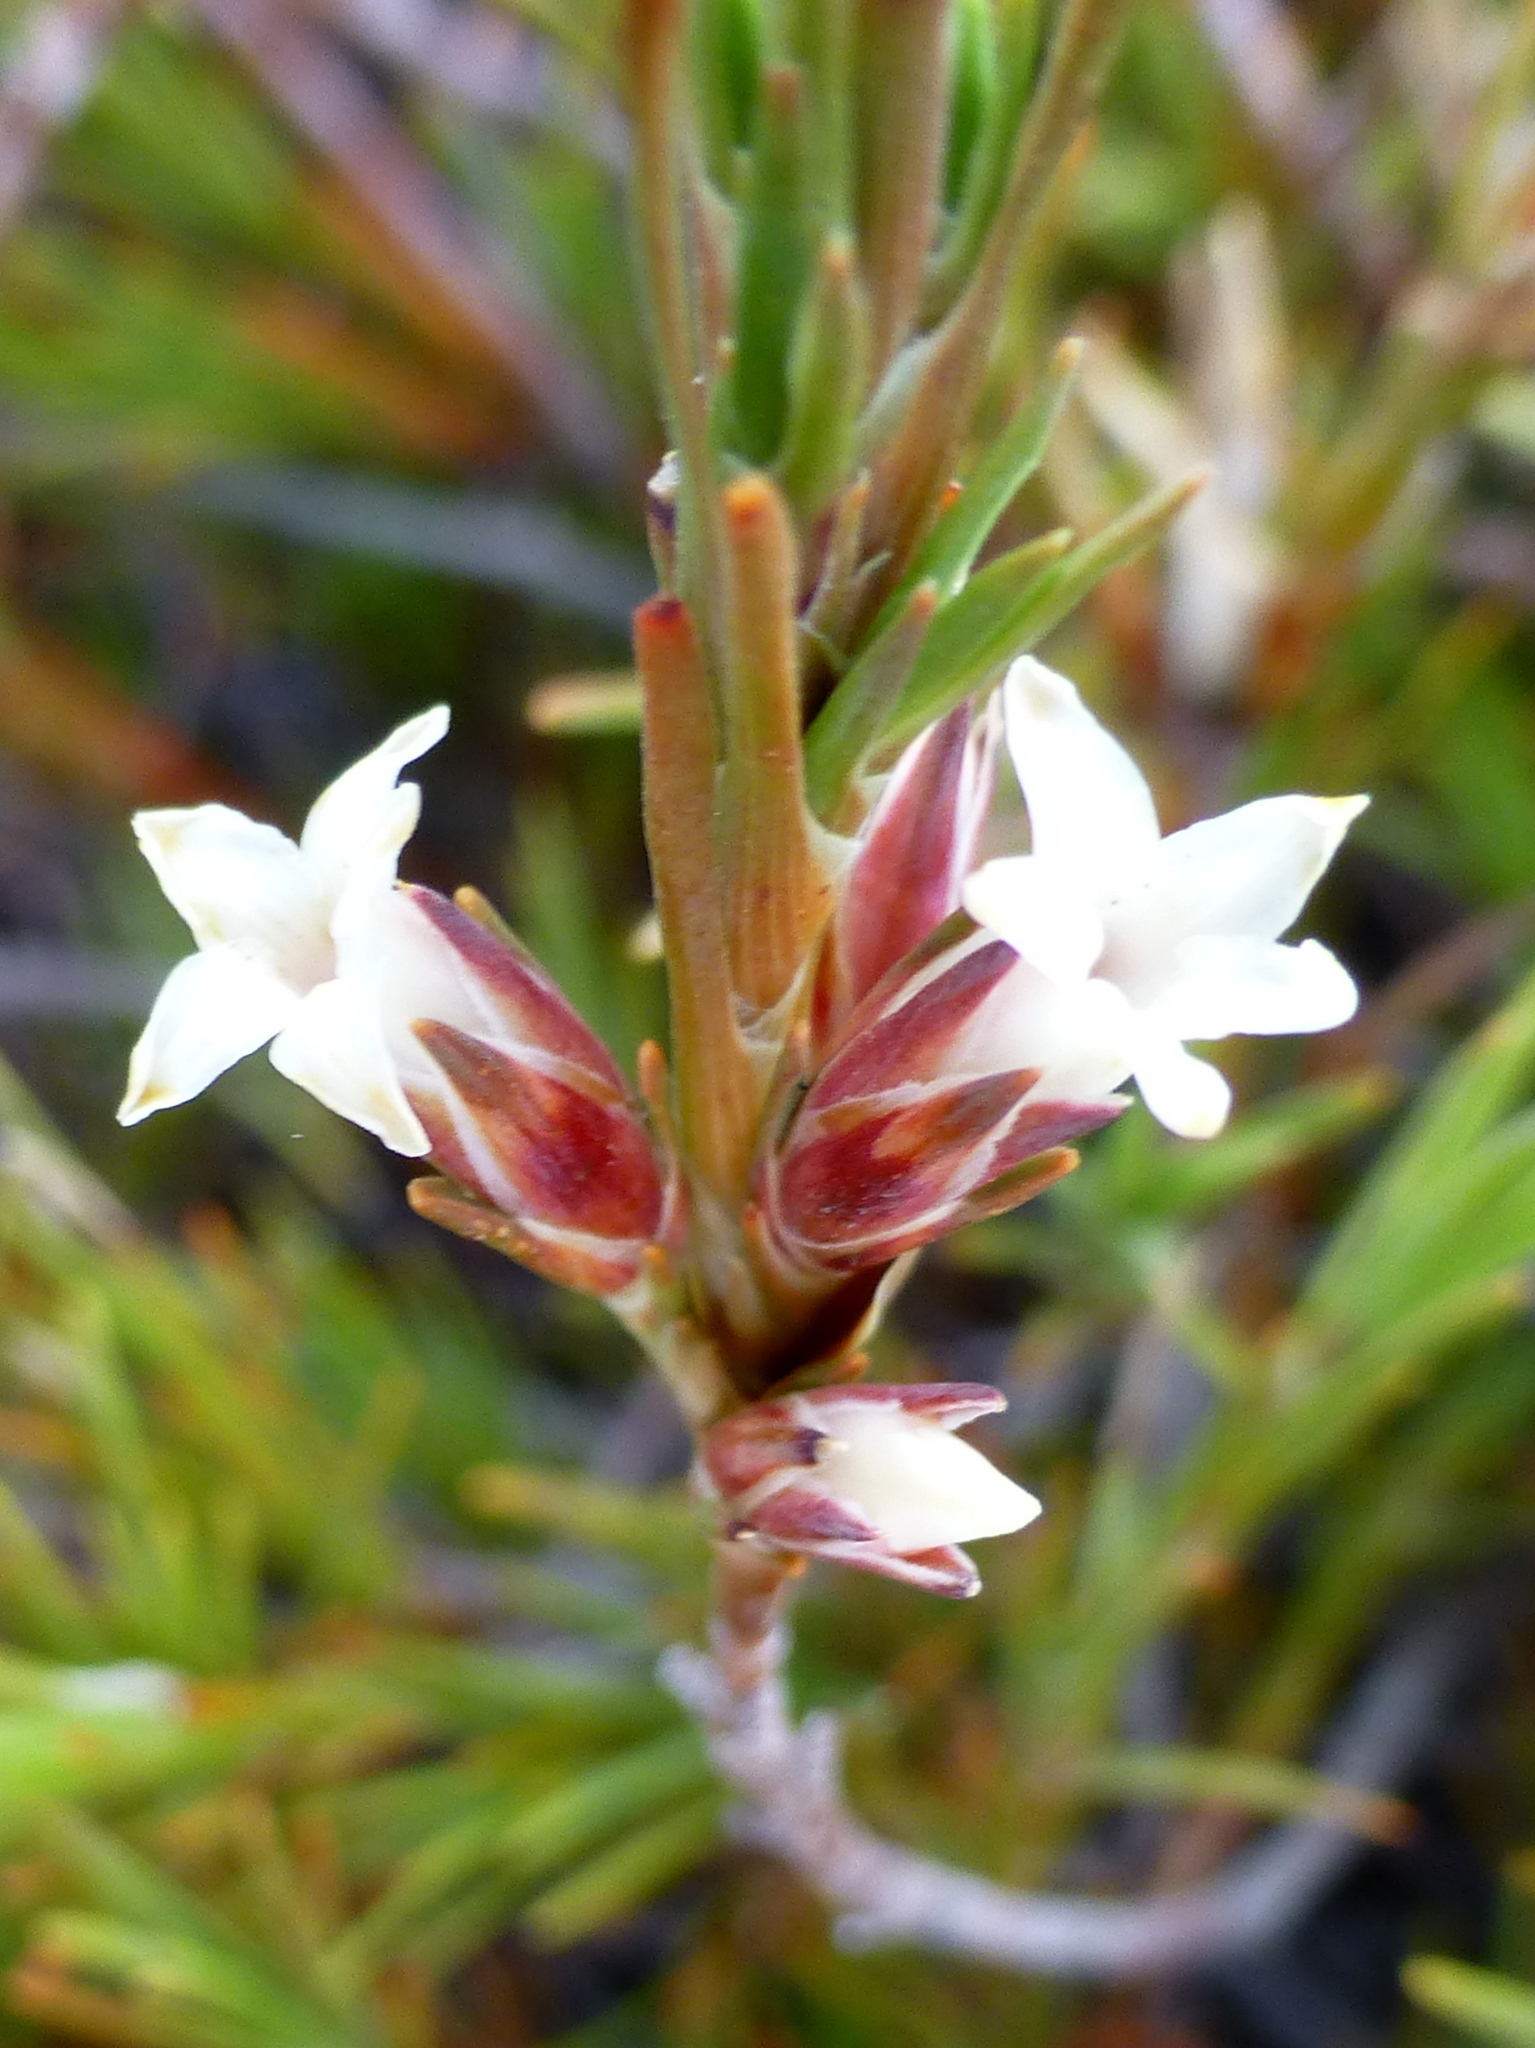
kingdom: Plantae
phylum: Tracheophyta
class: Magnoliopsida
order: Ericales
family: Ericaceae
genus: Dracophyllum
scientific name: Dracophyllum rosmarinifolium
